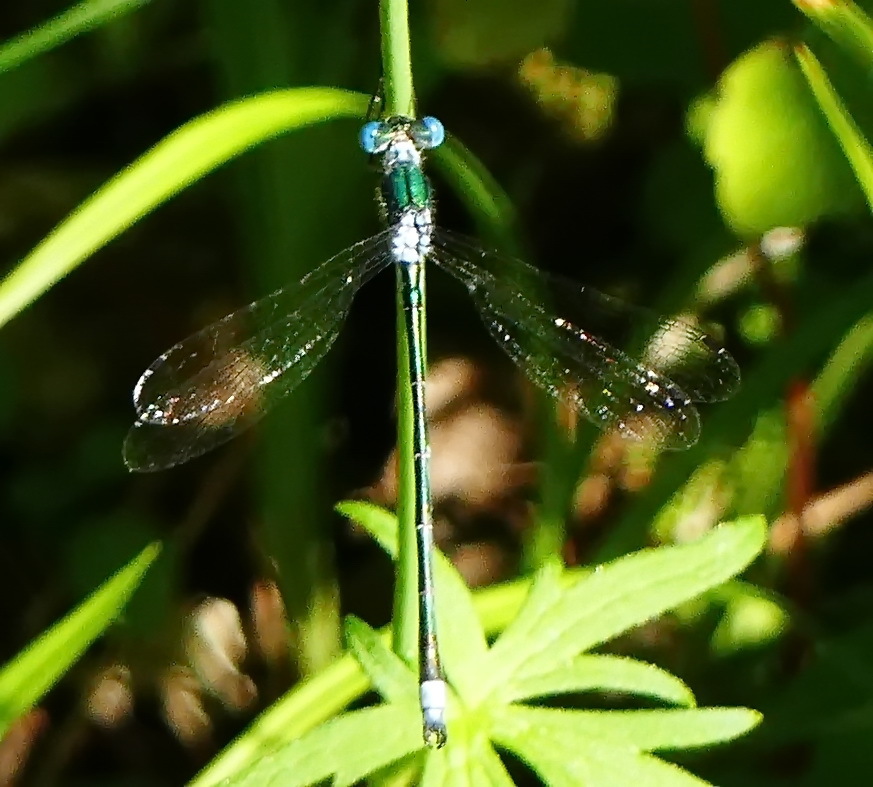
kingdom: Animalia
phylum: Arthropoda
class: Insecta
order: Odonata
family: Lestidae
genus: Lestes
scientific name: Lestes dryas
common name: Scarce emerald damselfly
